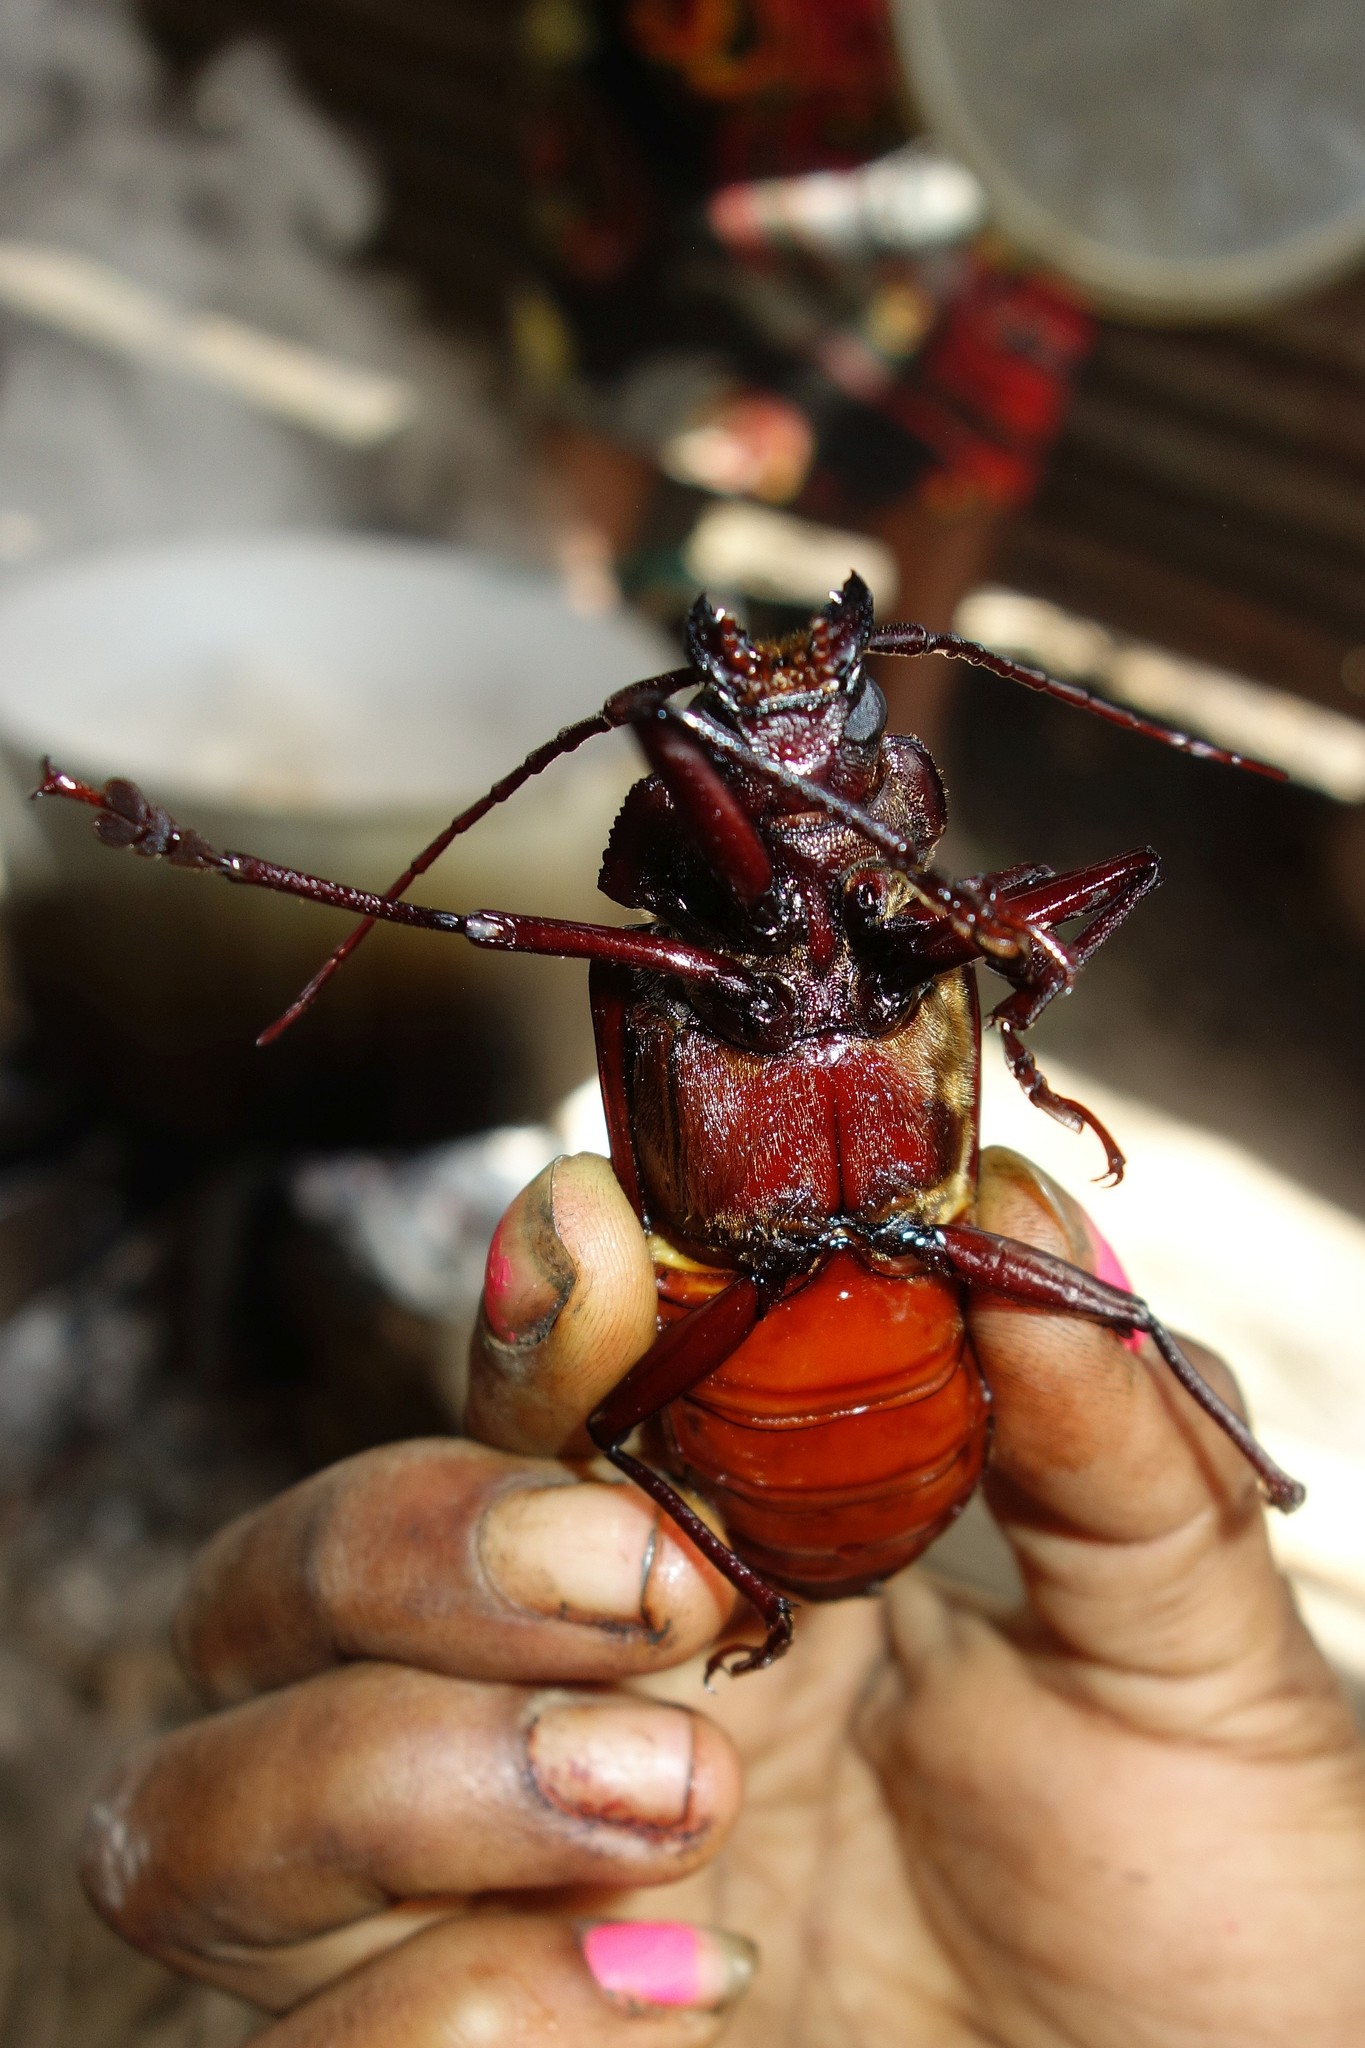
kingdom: Animalia
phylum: Arthropoda
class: Insecta
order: Coleoptera
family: Cerambycidae
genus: Olethrius
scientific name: Olethrius tyrannus
